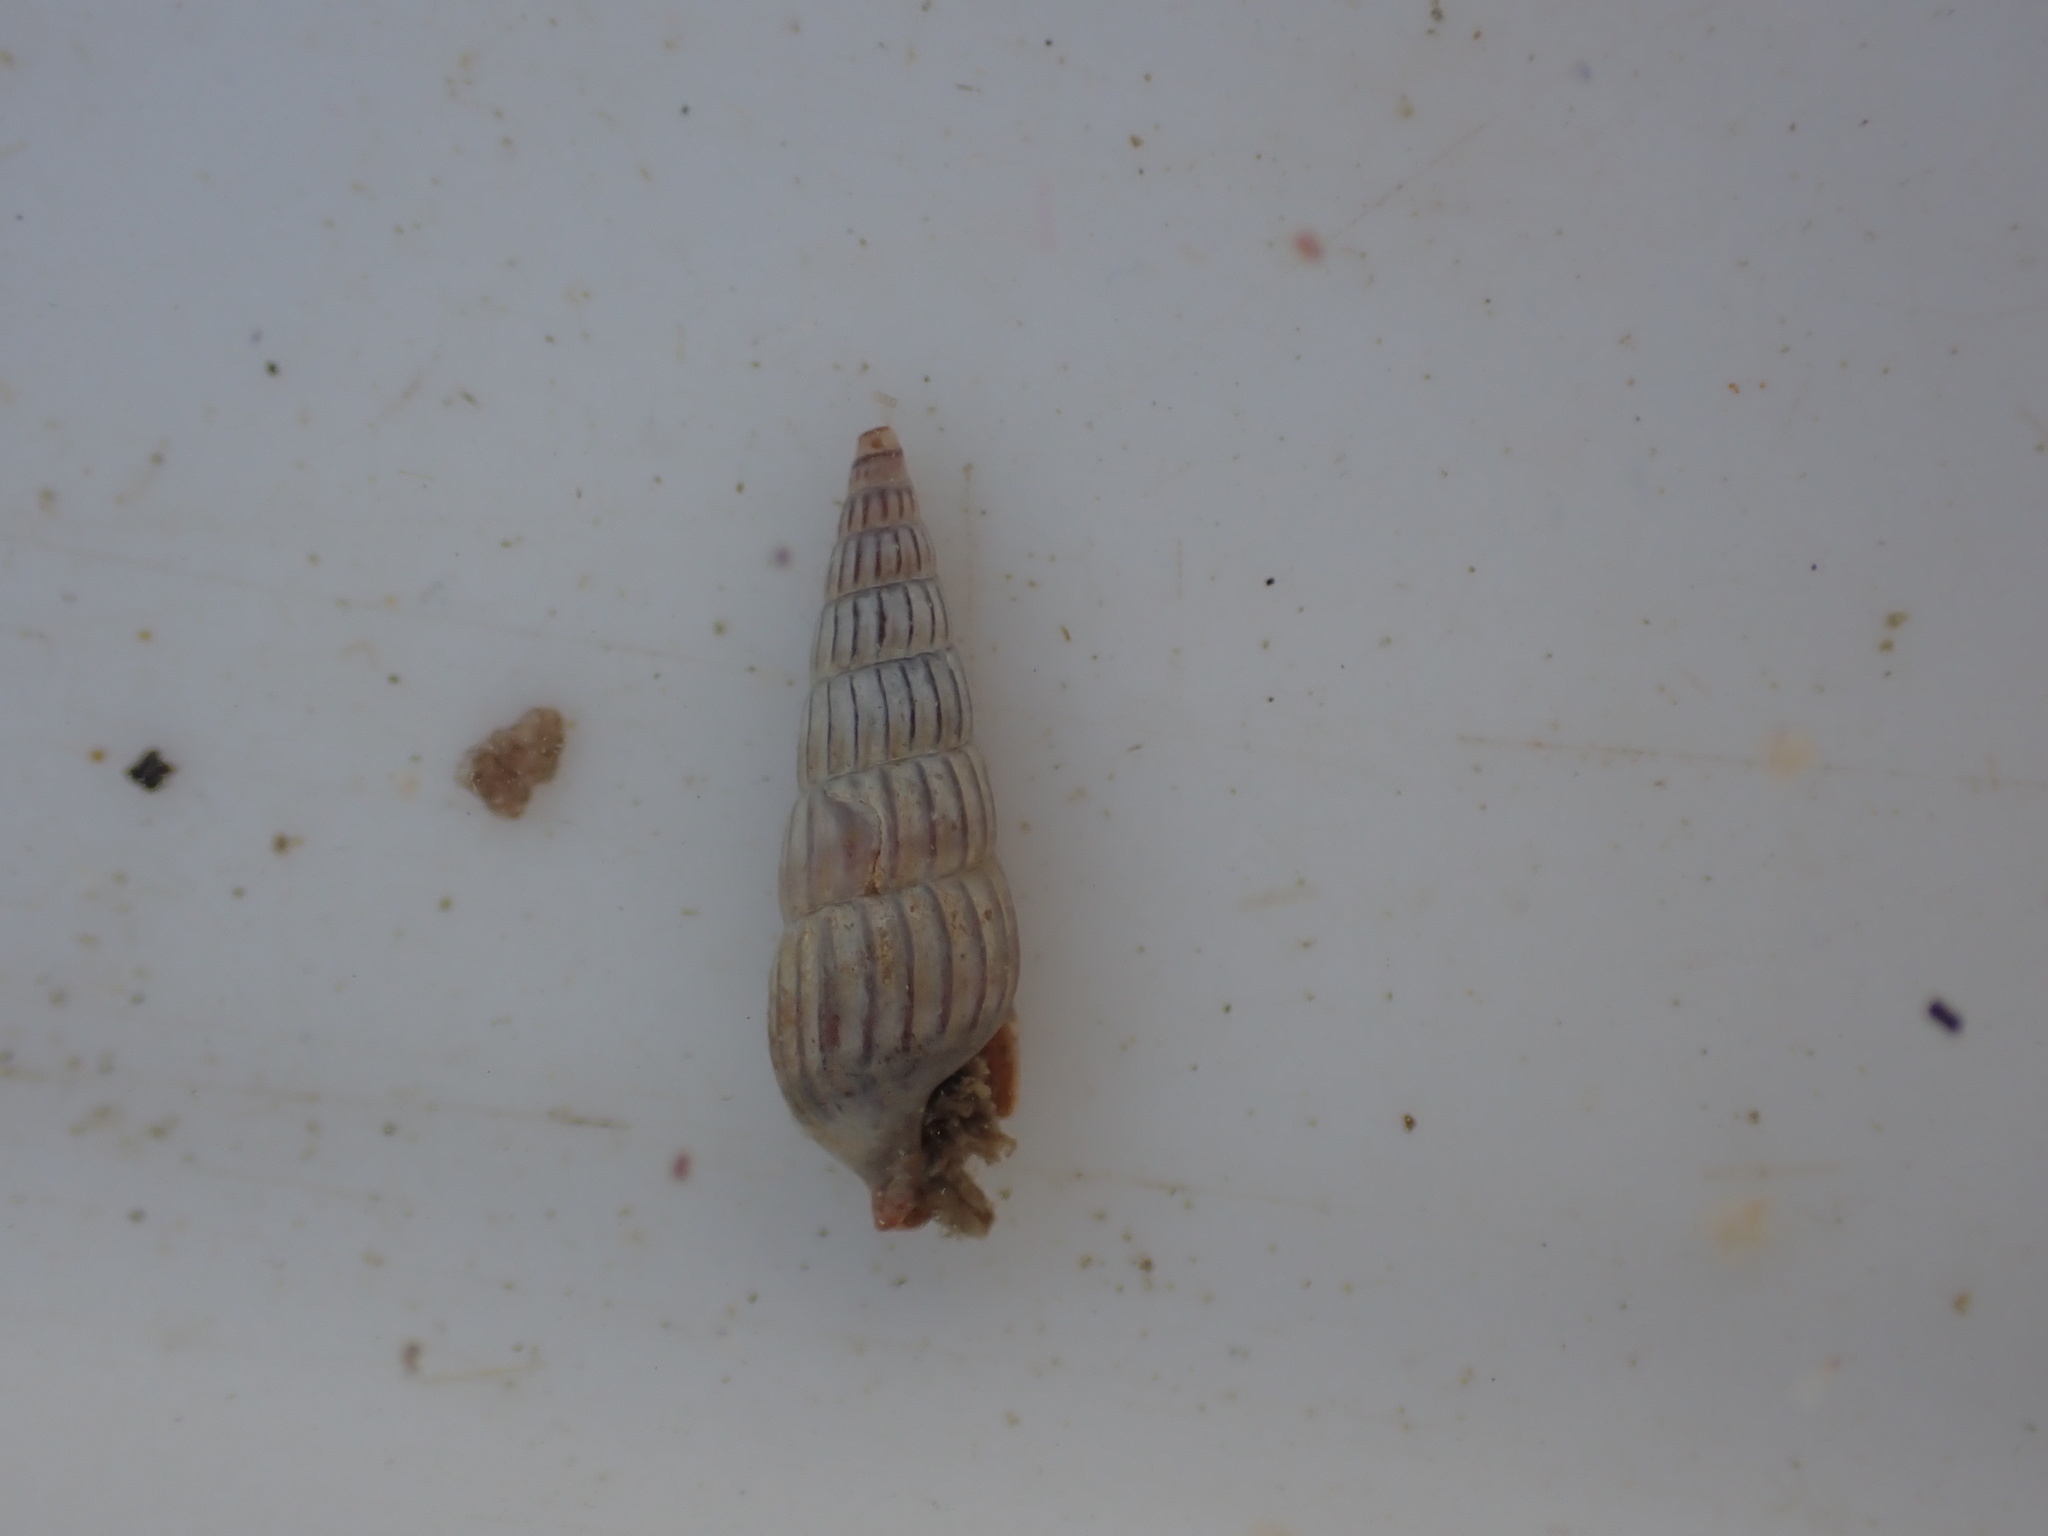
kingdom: Animalia
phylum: Mollusca
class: Gastropoda
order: Neogastropoda
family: Terebridae
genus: Duplicaria
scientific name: Duplicaria tristis
